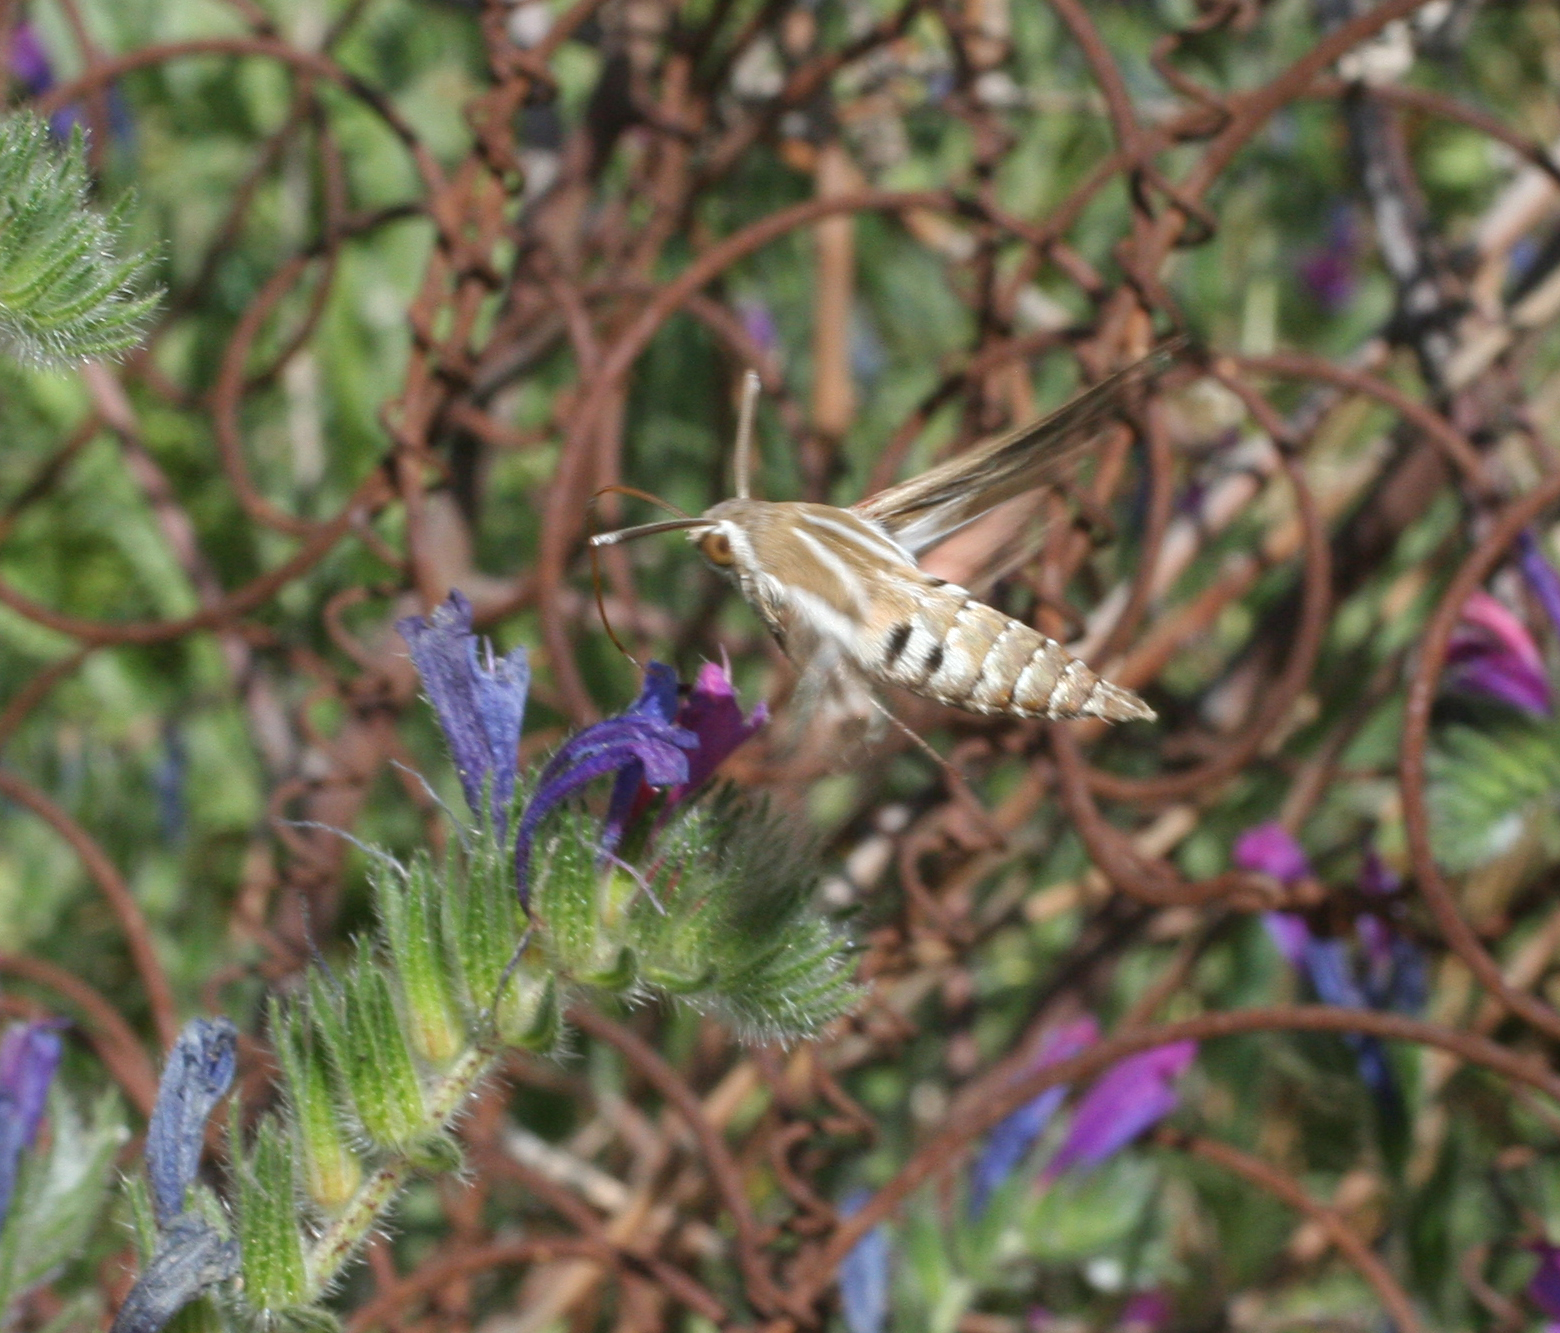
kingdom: Animalia
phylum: Arthropoda
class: Insecta
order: Lepidoptera
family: Sphingidae
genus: Hyles
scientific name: Hyles livornica
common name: Striped hawk-moth
